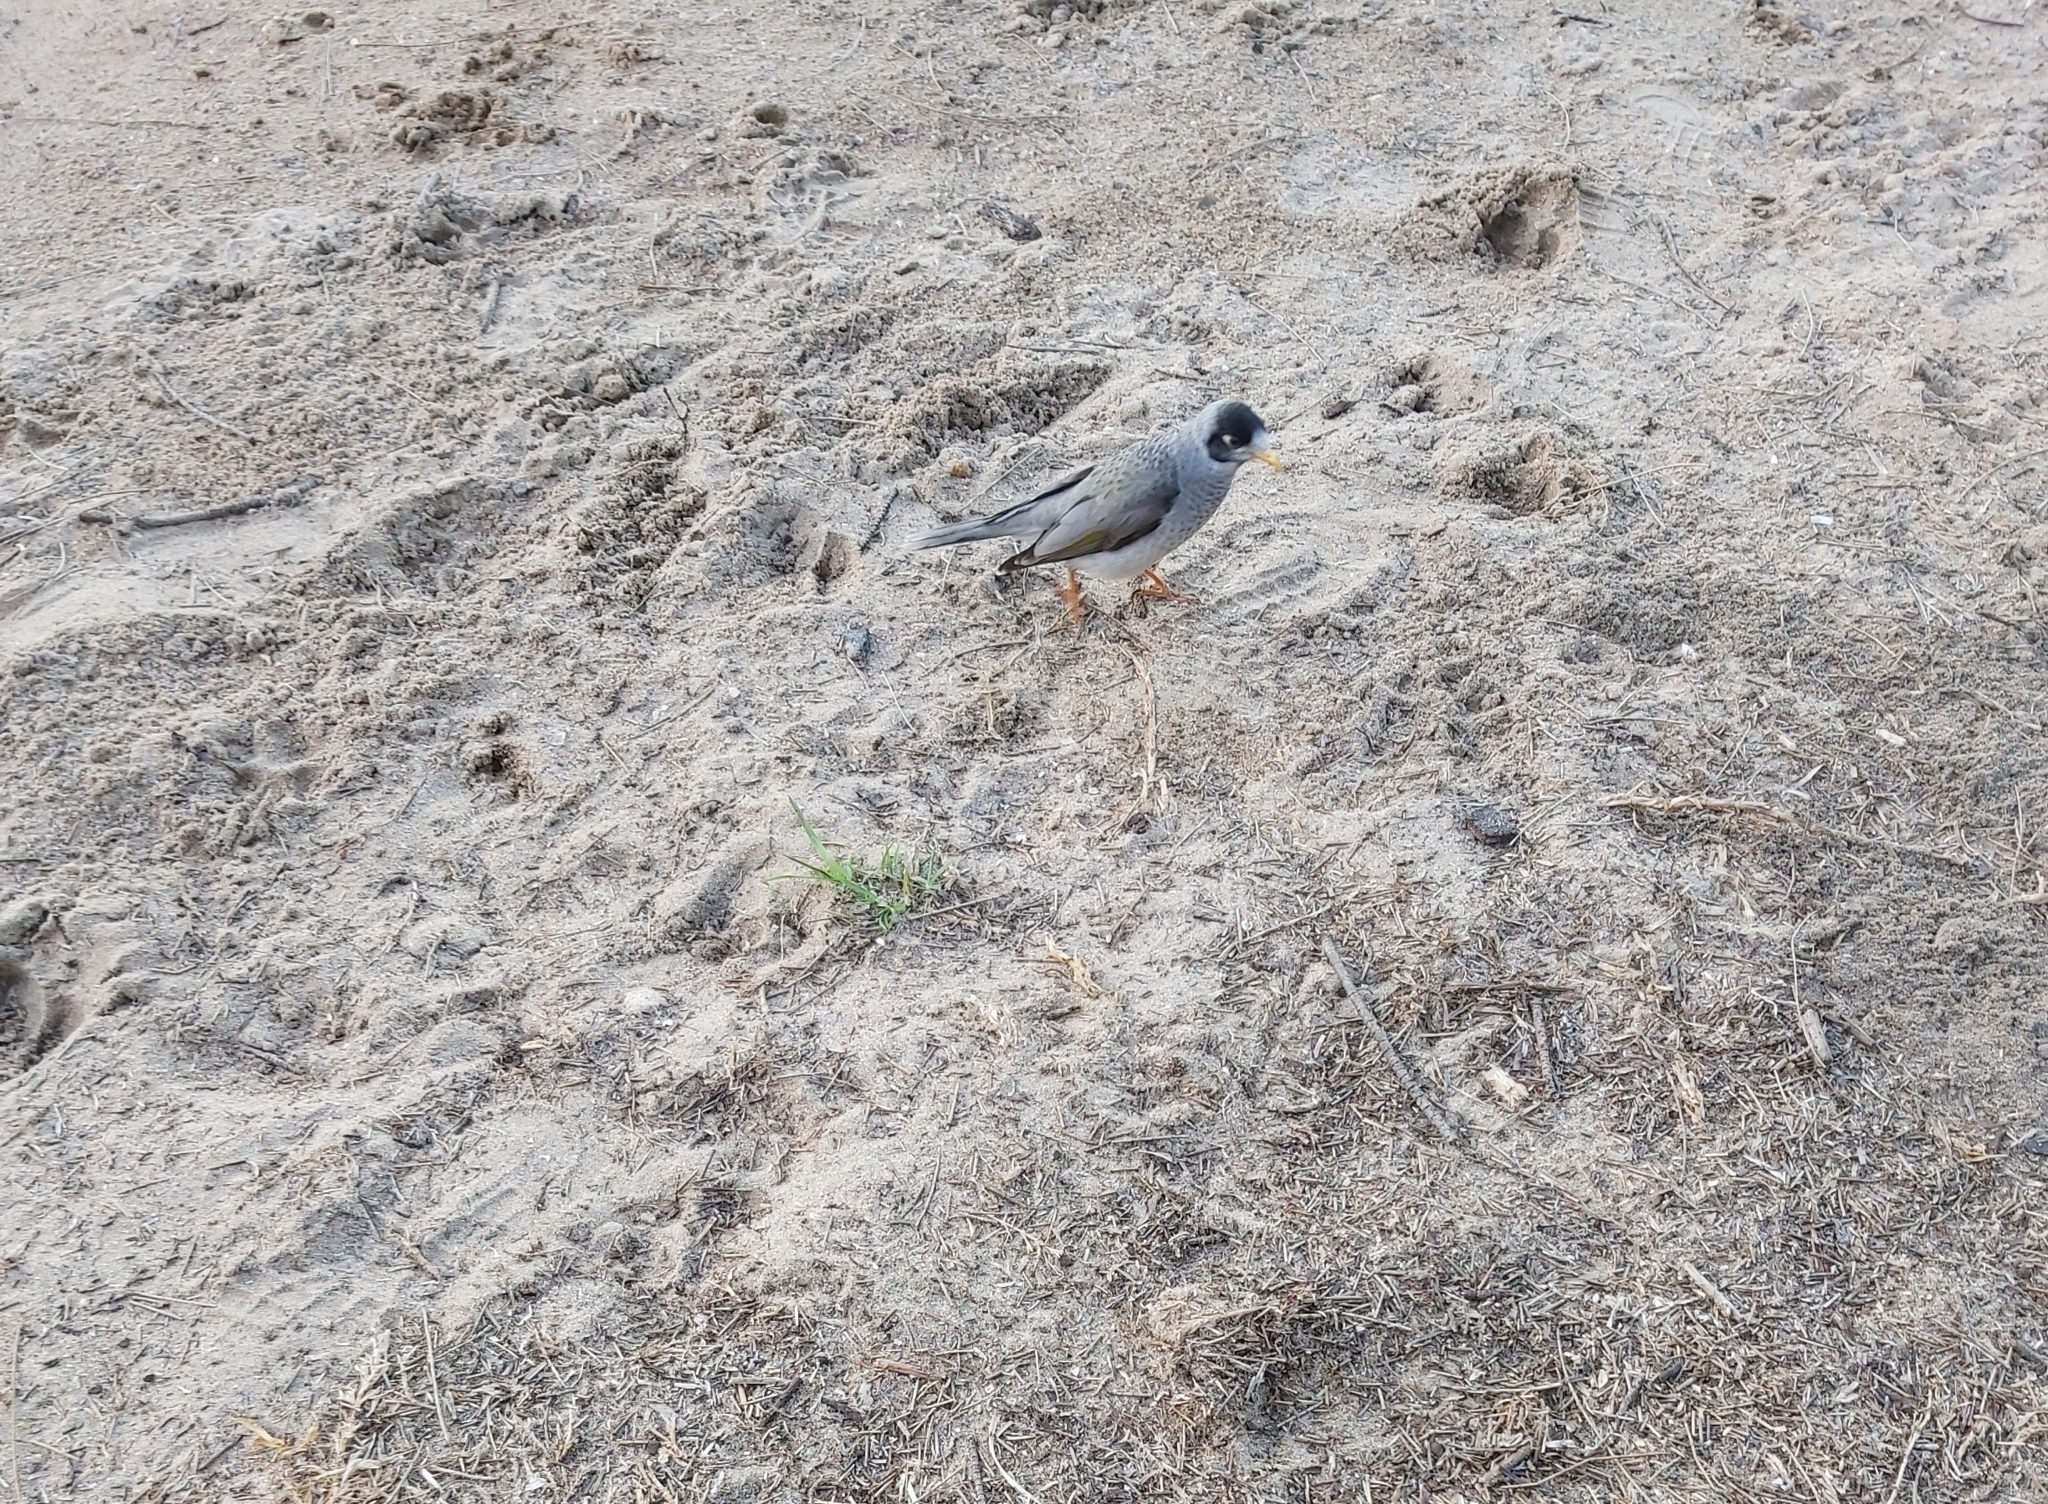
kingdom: Animalia
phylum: Chordata
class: Aves
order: Passeriformes
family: Meliphagidae
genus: Manorina
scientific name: Manorina melanocephala
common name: Noisy miner
